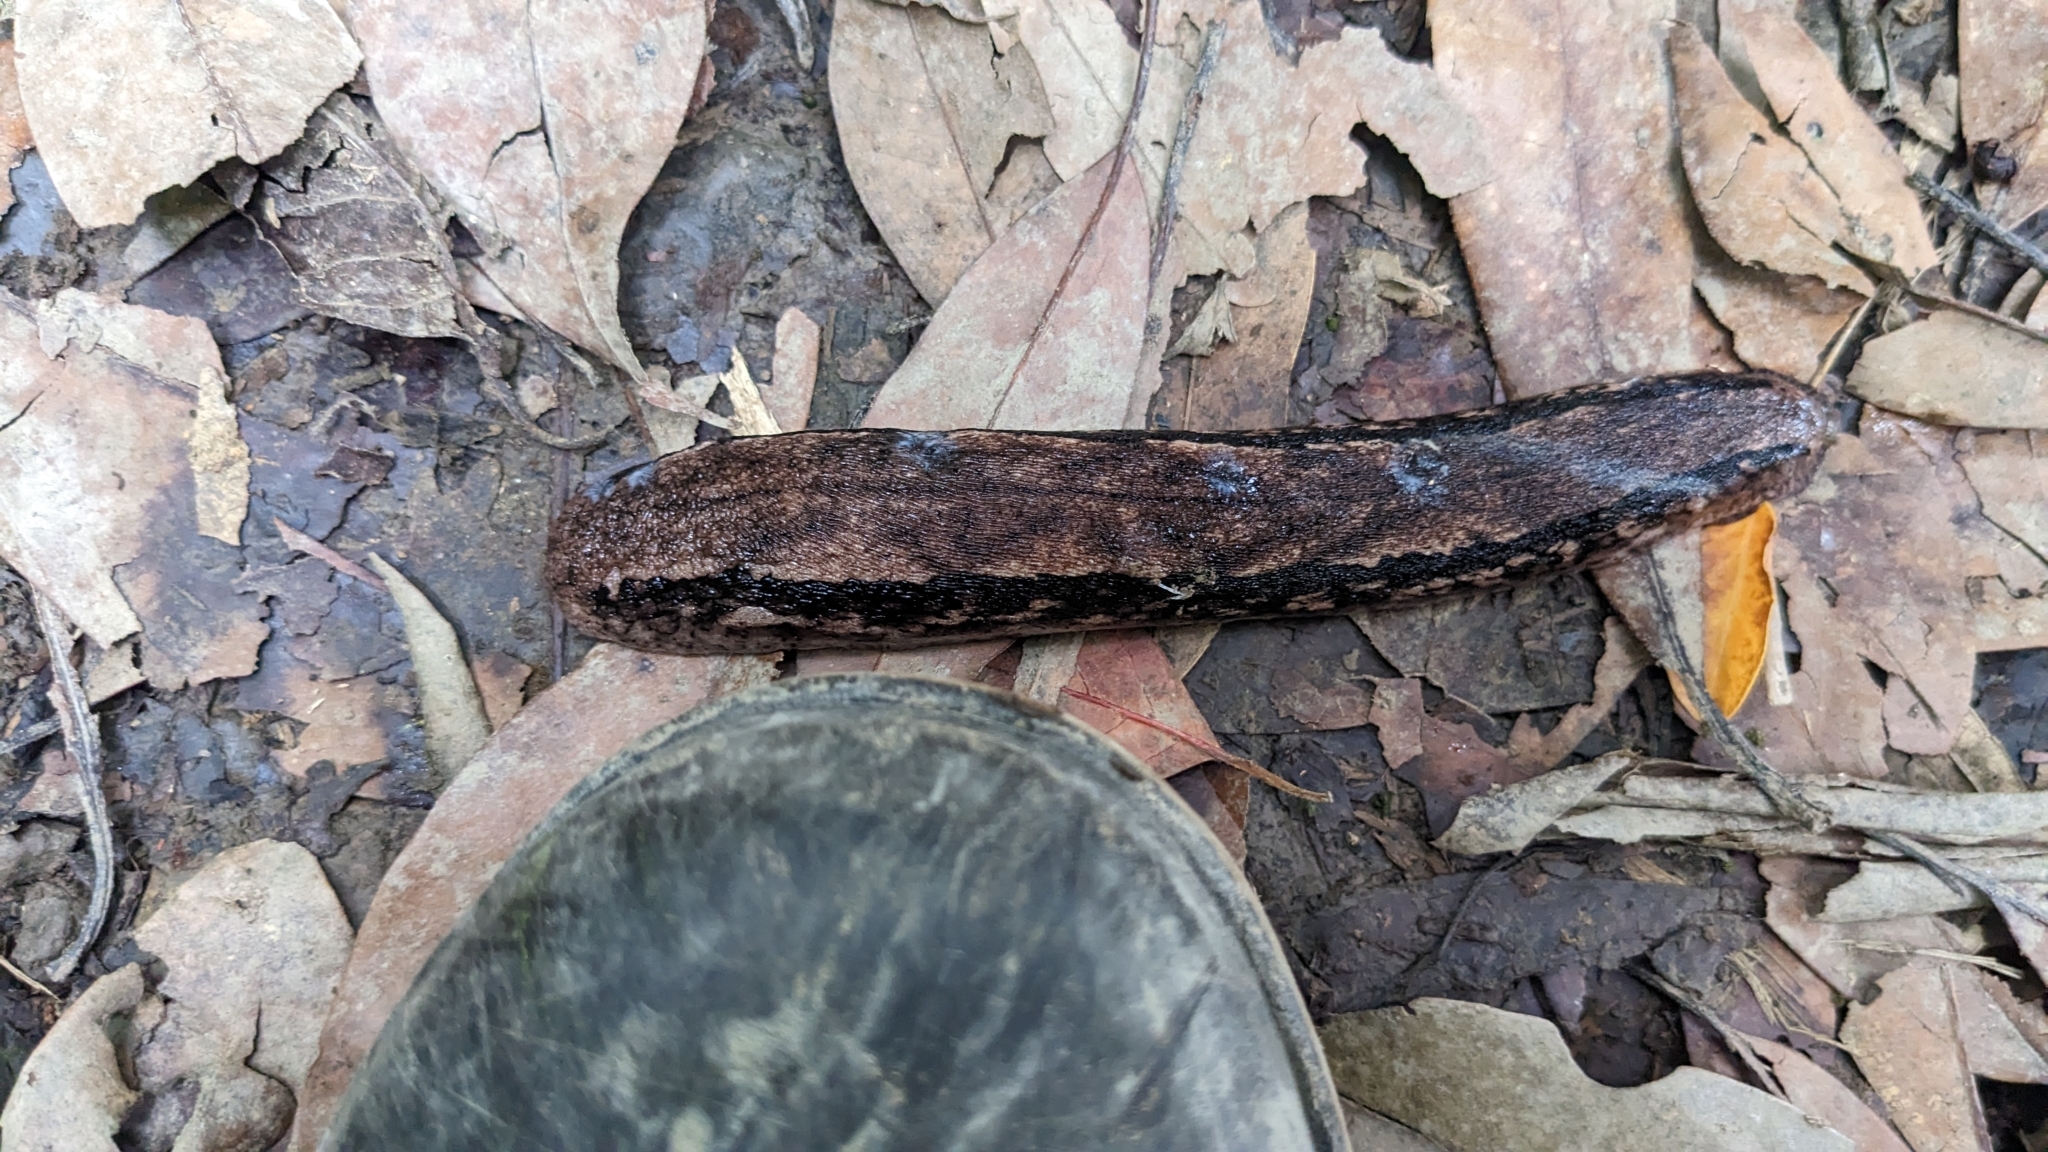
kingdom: Animalia
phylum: Mollusca
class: Gastropoda
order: Stylommatophora
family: Philomycidae
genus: Meghimatium
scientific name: Meghimatium fruhstorferi
